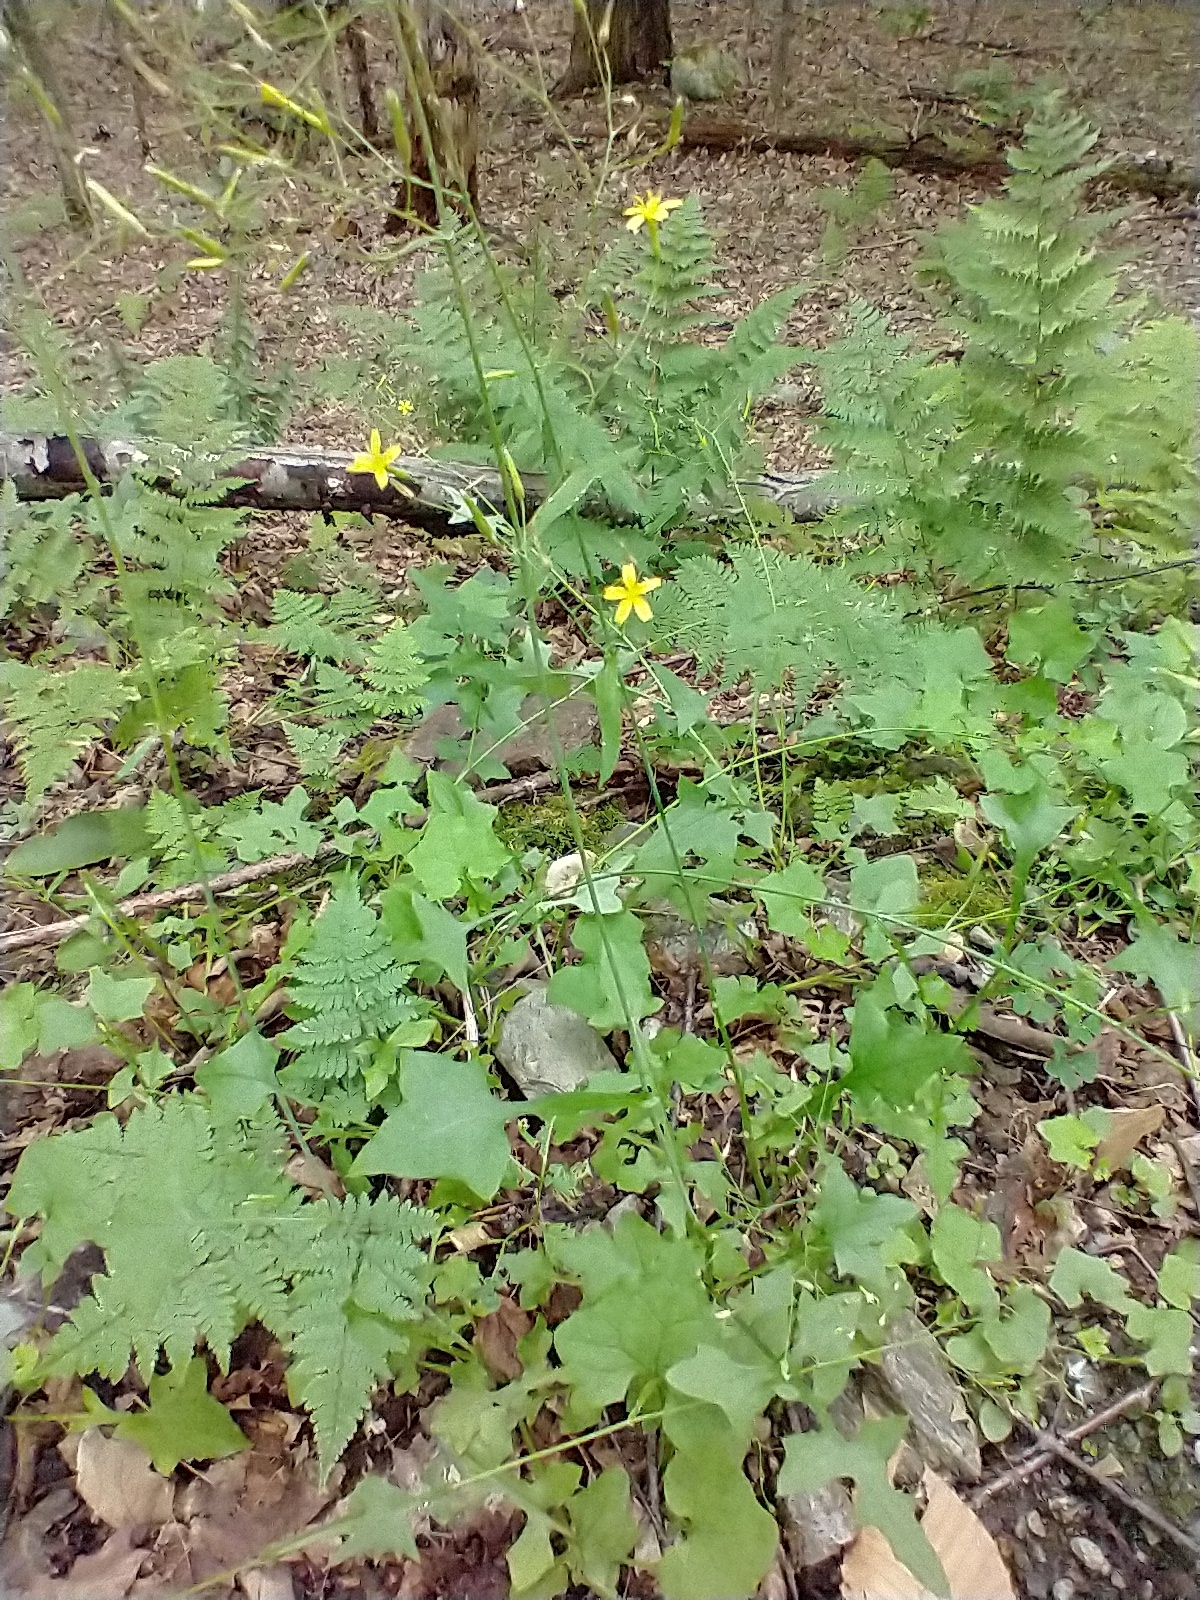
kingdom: Plantae
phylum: Tracheophyta
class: Magnoliopsida
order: Asterales
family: Asteraceae
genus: Mycelis
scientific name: Mycelis muralis
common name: Wall lettuce
